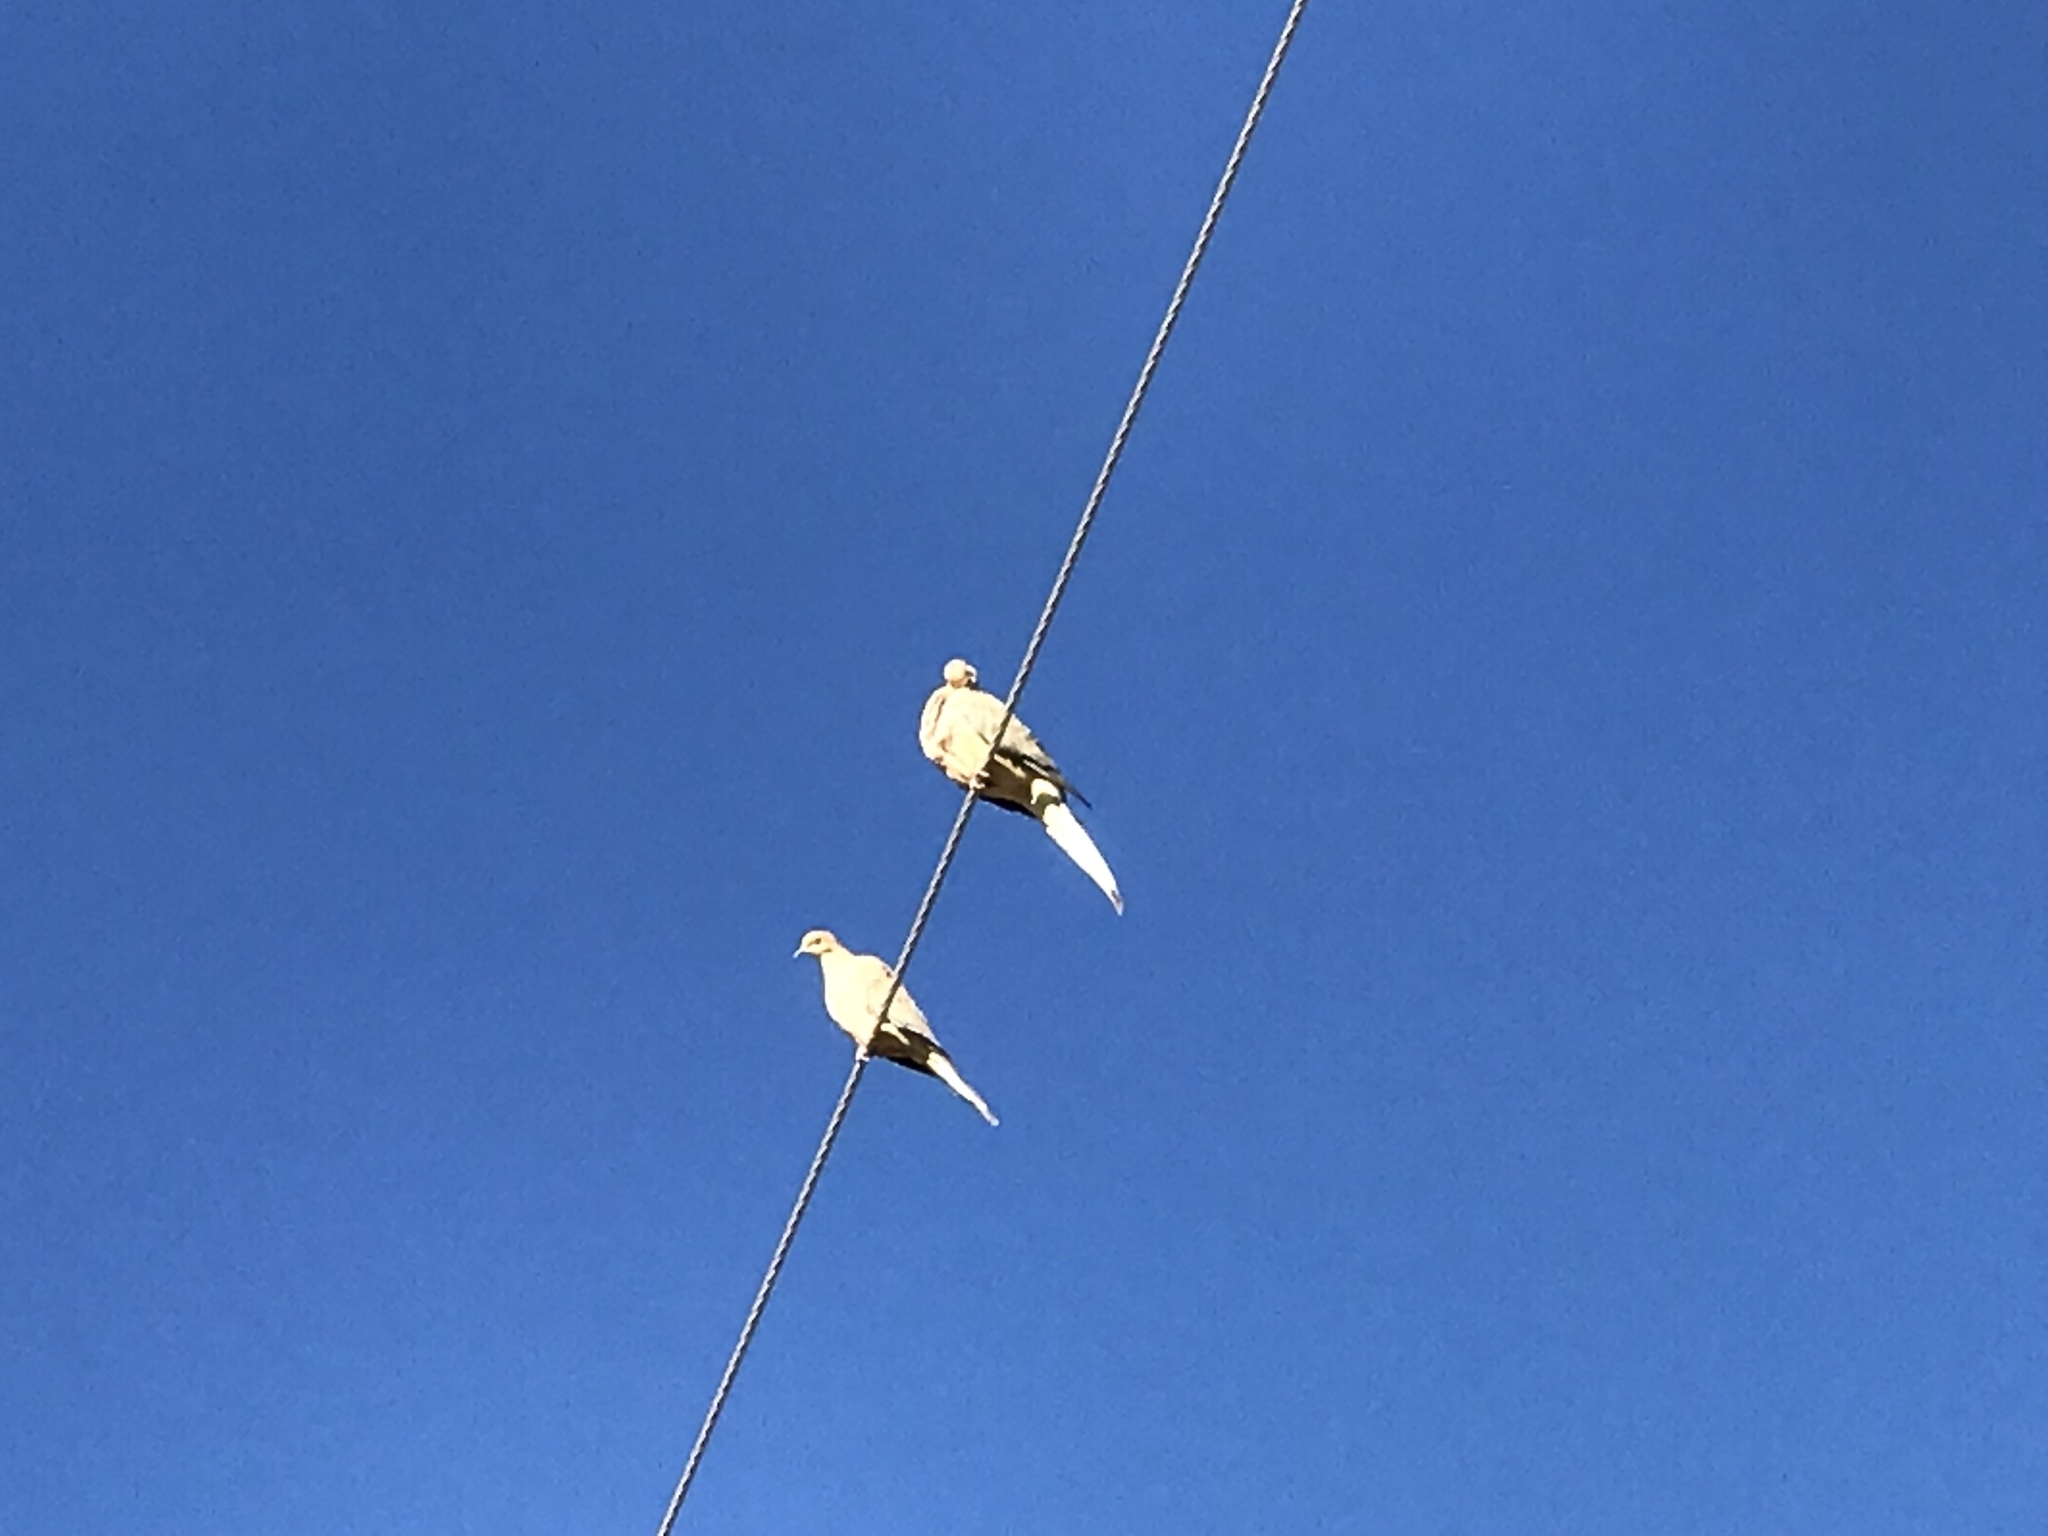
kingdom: Animalia
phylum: Chordata
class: Aves
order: Columbiformes
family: Columbidae
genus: Zenaida
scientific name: Zenaida macroura
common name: Mourning dove
